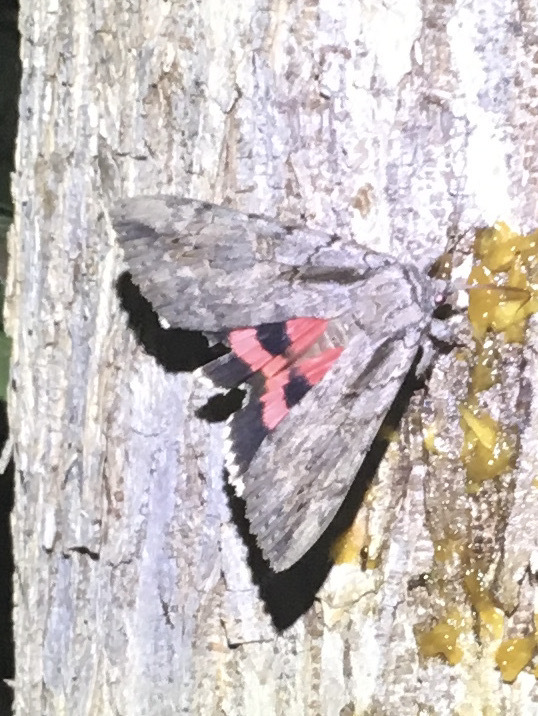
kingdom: Animalia
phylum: Arthropoda
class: Insecta
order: Lepidoptera
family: Erebidae
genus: Catocala
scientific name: Catocala amatrix
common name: Sweetheart underwing
